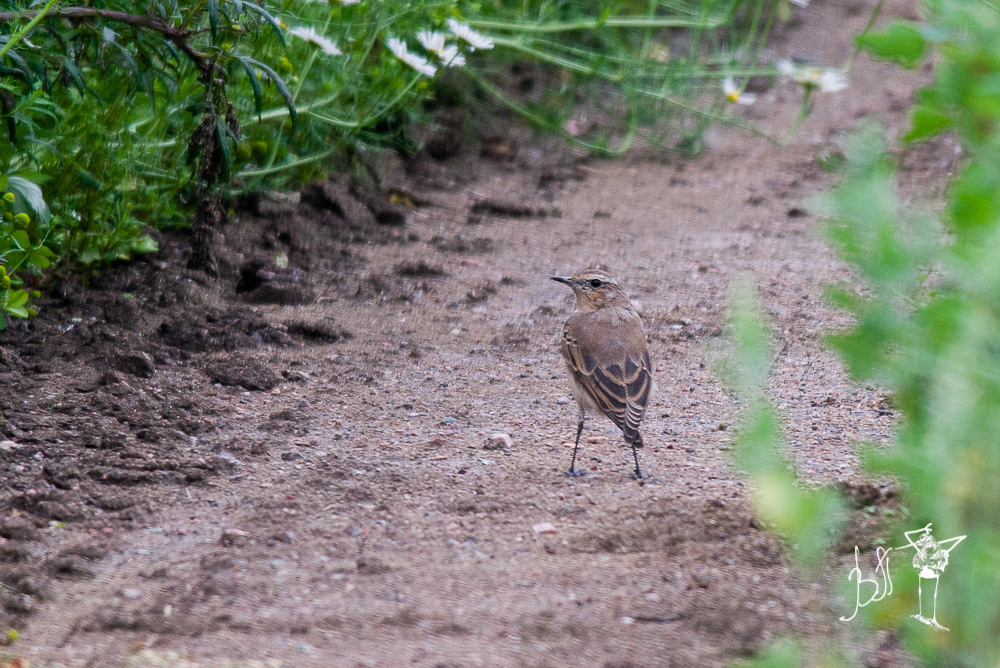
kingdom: Animalia
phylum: Chordata
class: Aves
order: Passeriformes
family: Muscicapidae
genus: Oenanthe
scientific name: Oenanthe oenanthe
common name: Northern wheatear
